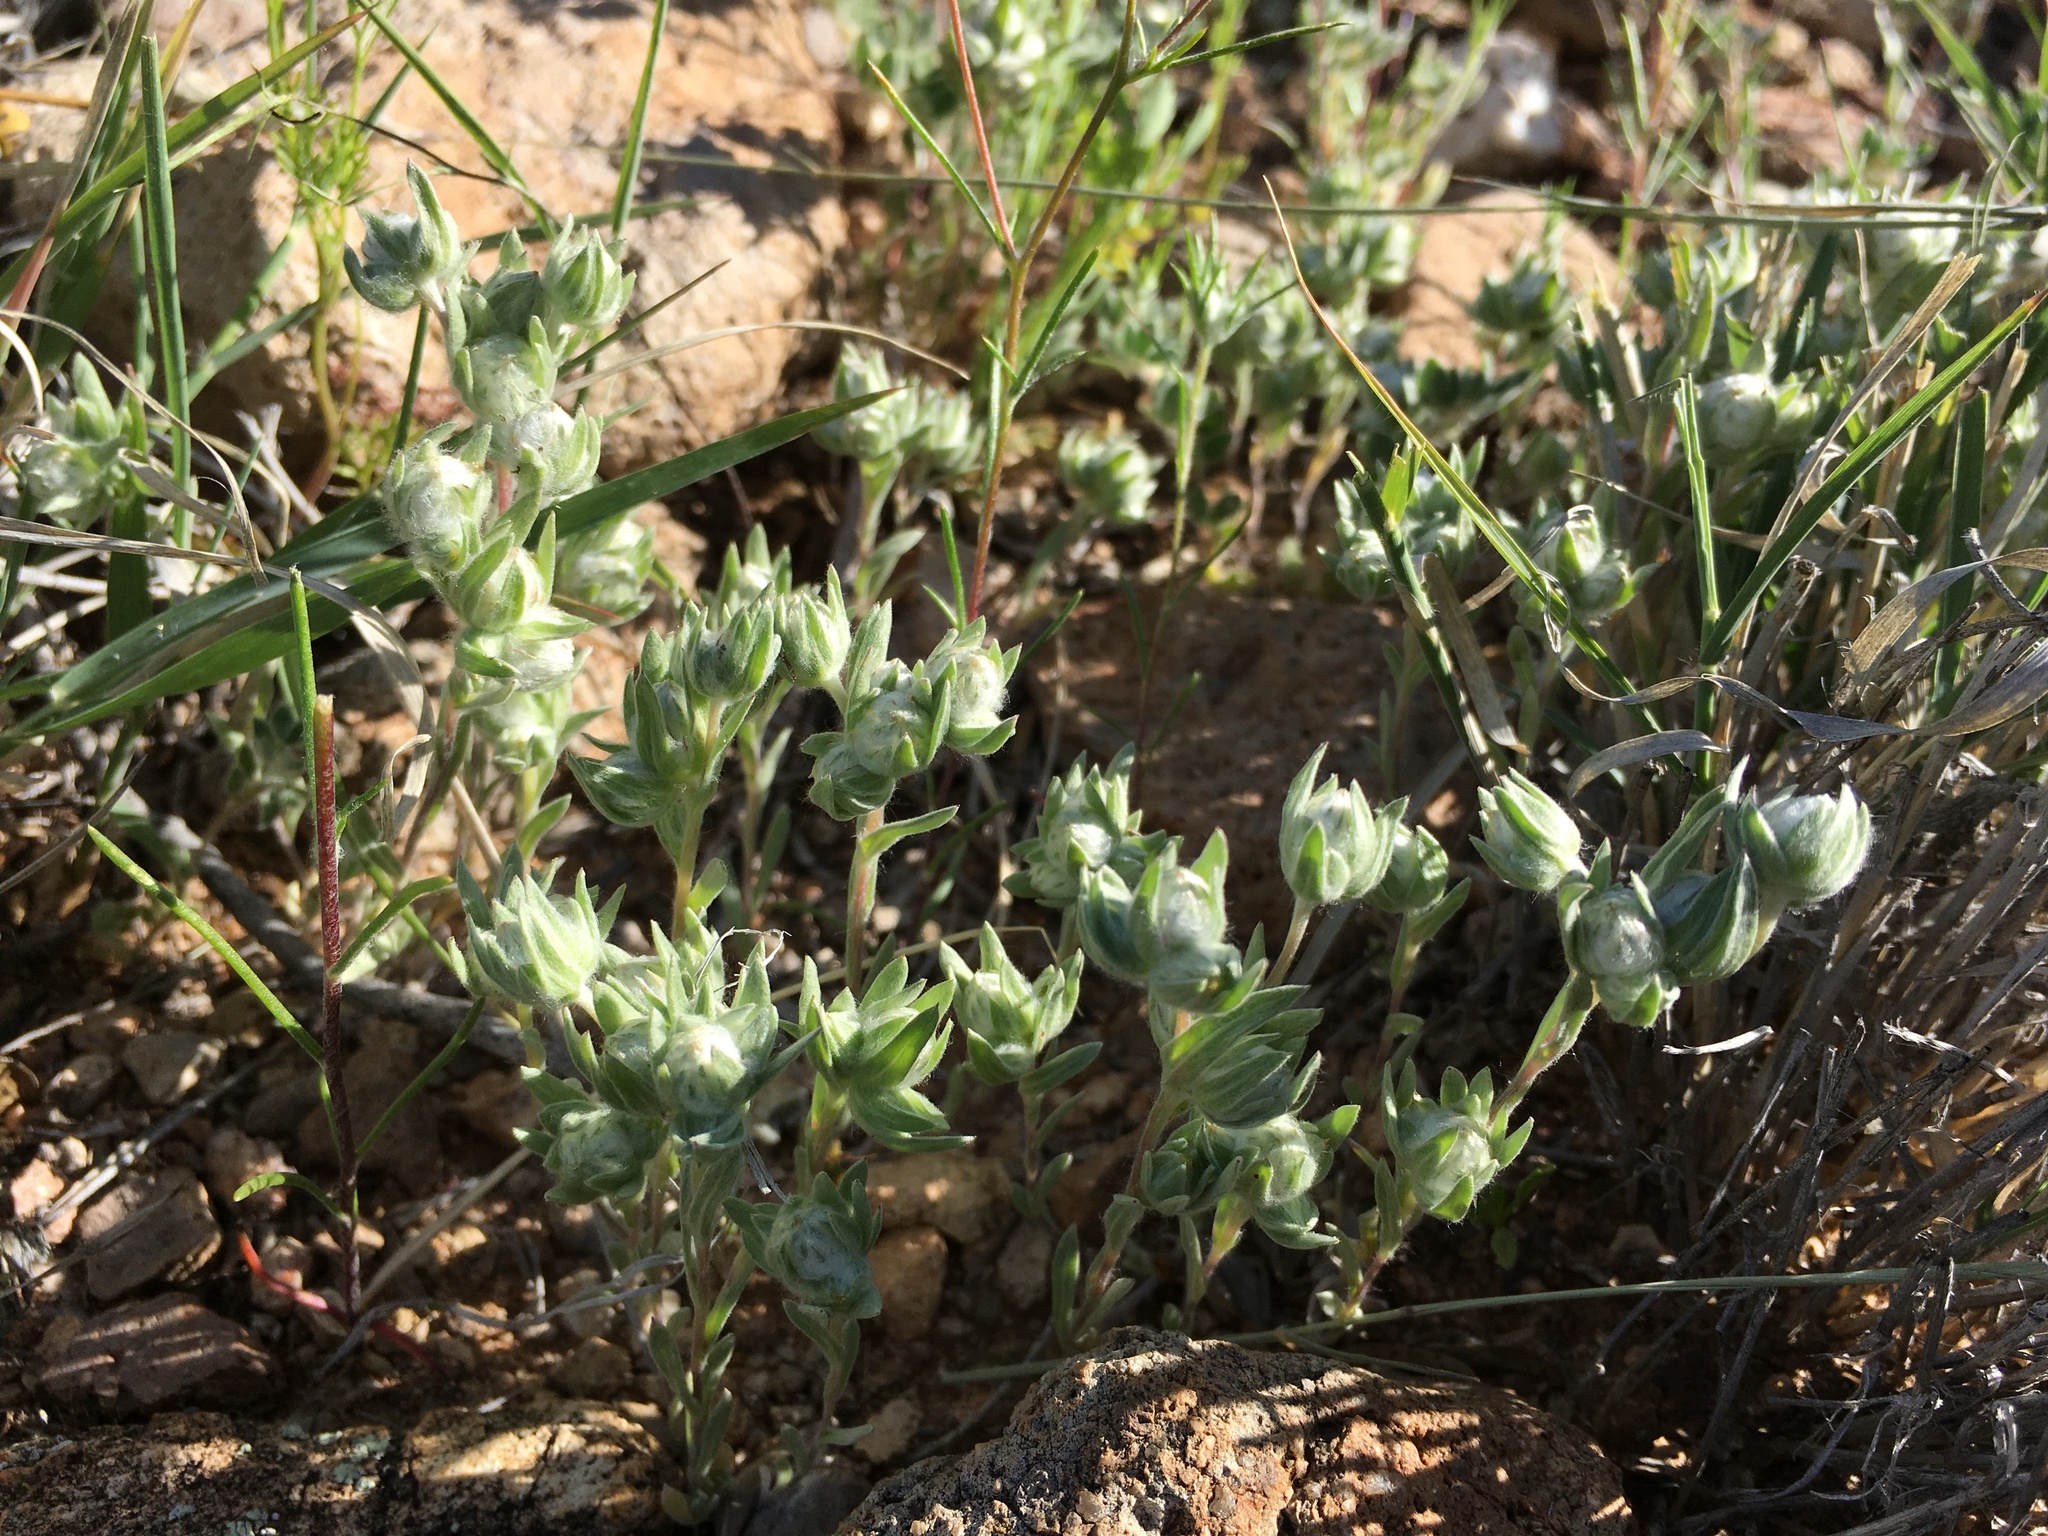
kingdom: Plantae
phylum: Tracheophyta
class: Magnoliopsida
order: Asterales
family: Asteraceae
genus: Stylocline
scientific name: Stylocline micropoides
